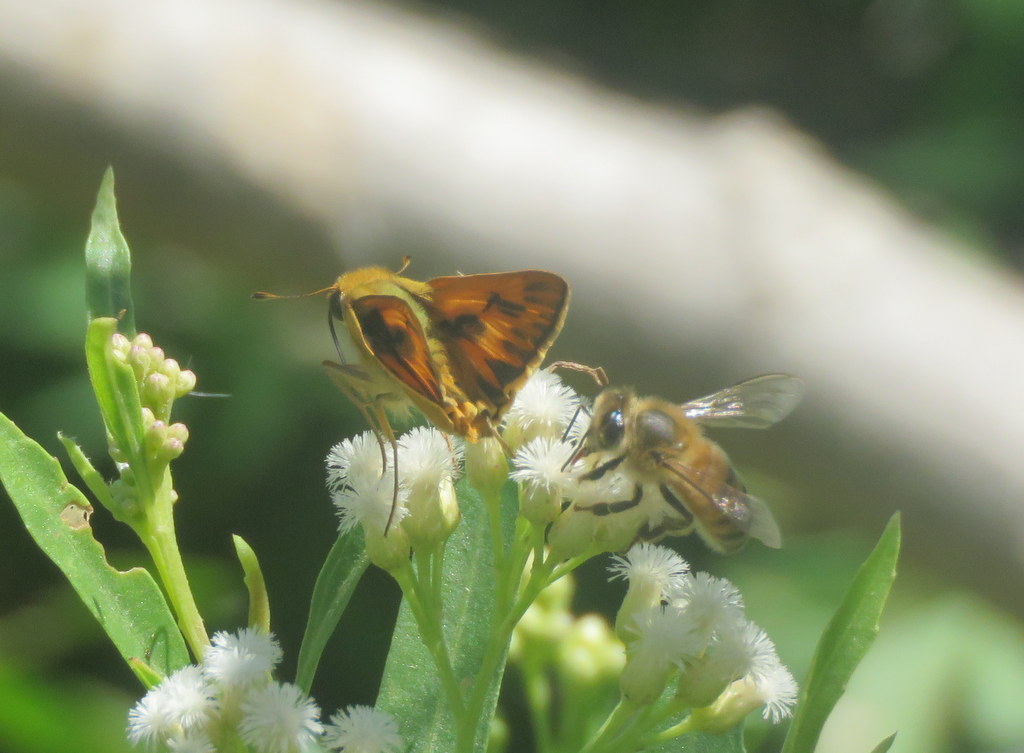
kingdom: Animalia
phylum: Arthropoda
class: Insecta
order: Lepidoptera
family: Hesperiidae
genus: Hylephila
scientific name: Hylephila phyleus
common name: Fiery skipper
